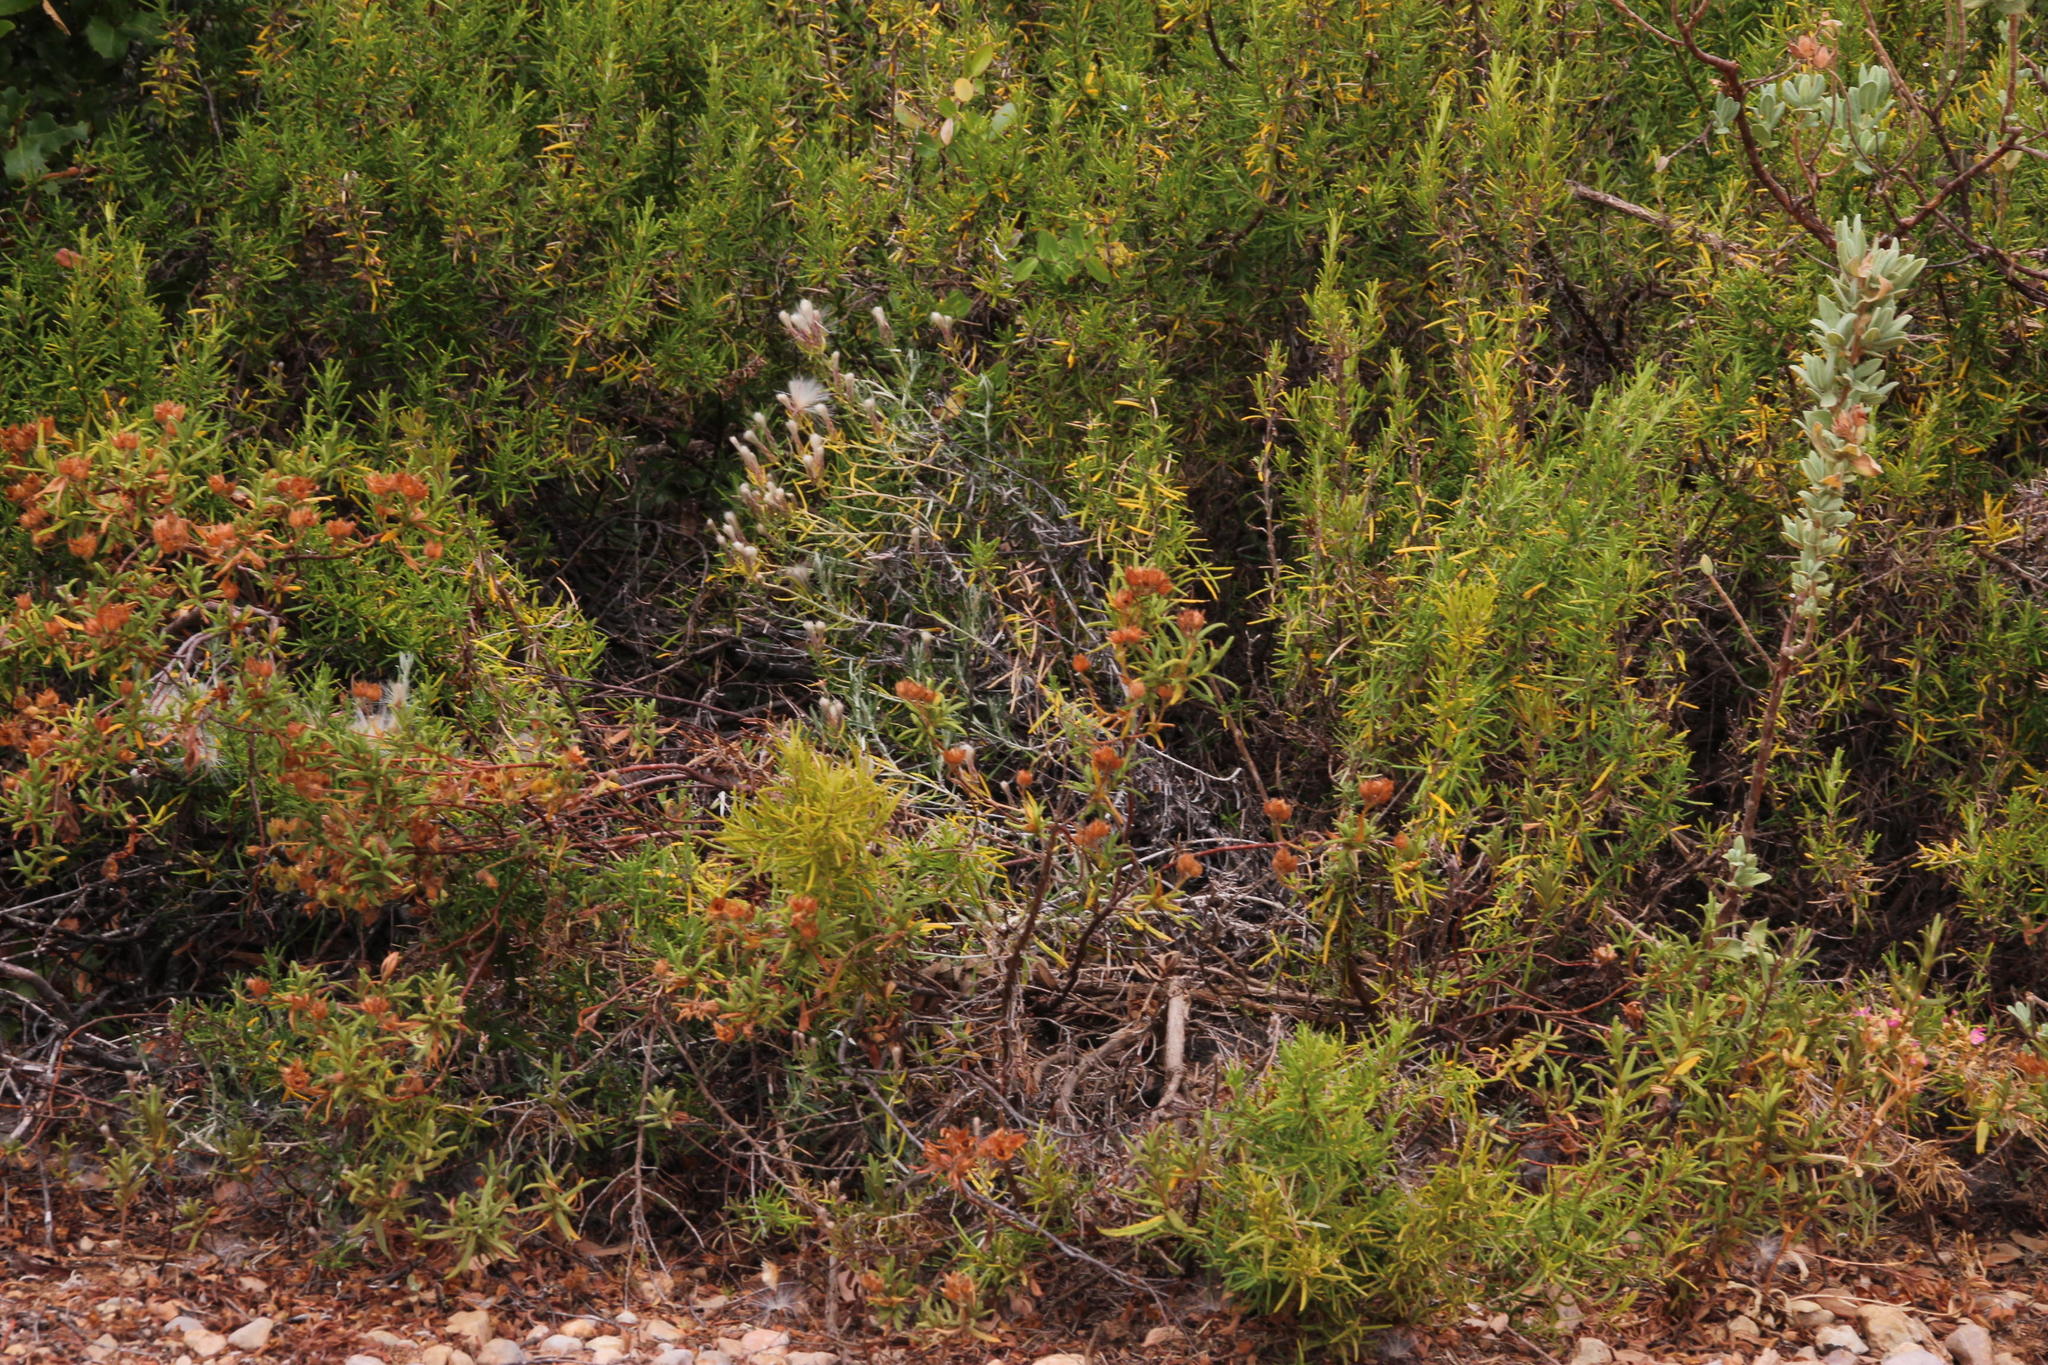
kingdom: Plantae
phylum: Tracheophyta
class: Magnoliopsida
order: Asterales
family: Asteraceae
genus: Staehelina
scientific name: Staehelina dubia
